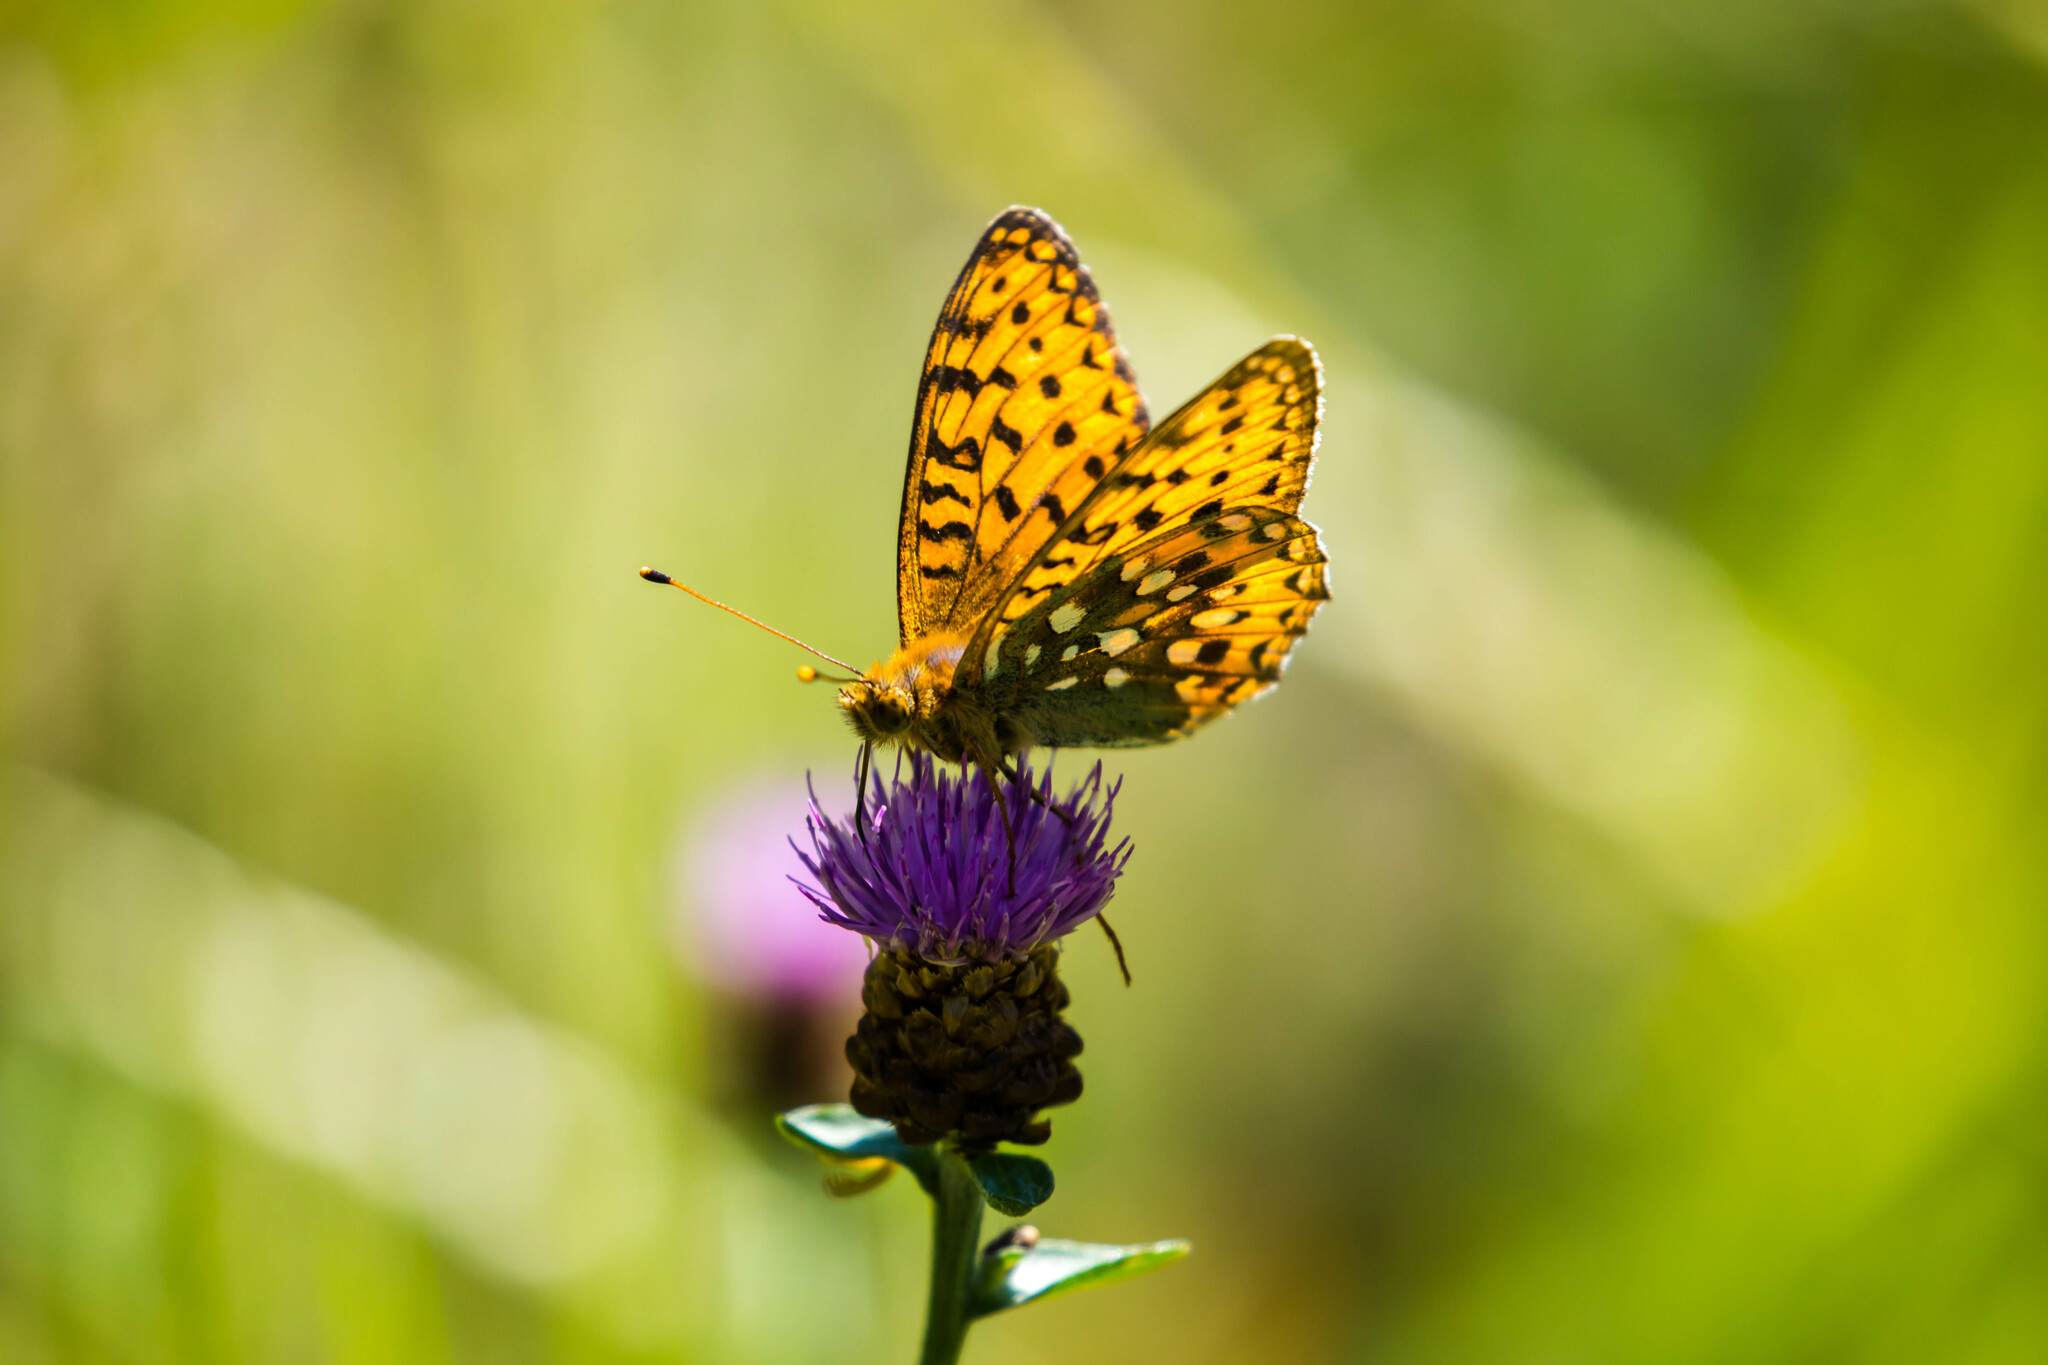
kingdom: Animalia
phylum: Arthropoda
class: Insecta
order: Lepidoptera
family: Nymphalidae
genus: Speyeria
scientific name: Speyeria aglaja
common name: Dark green fritillary
